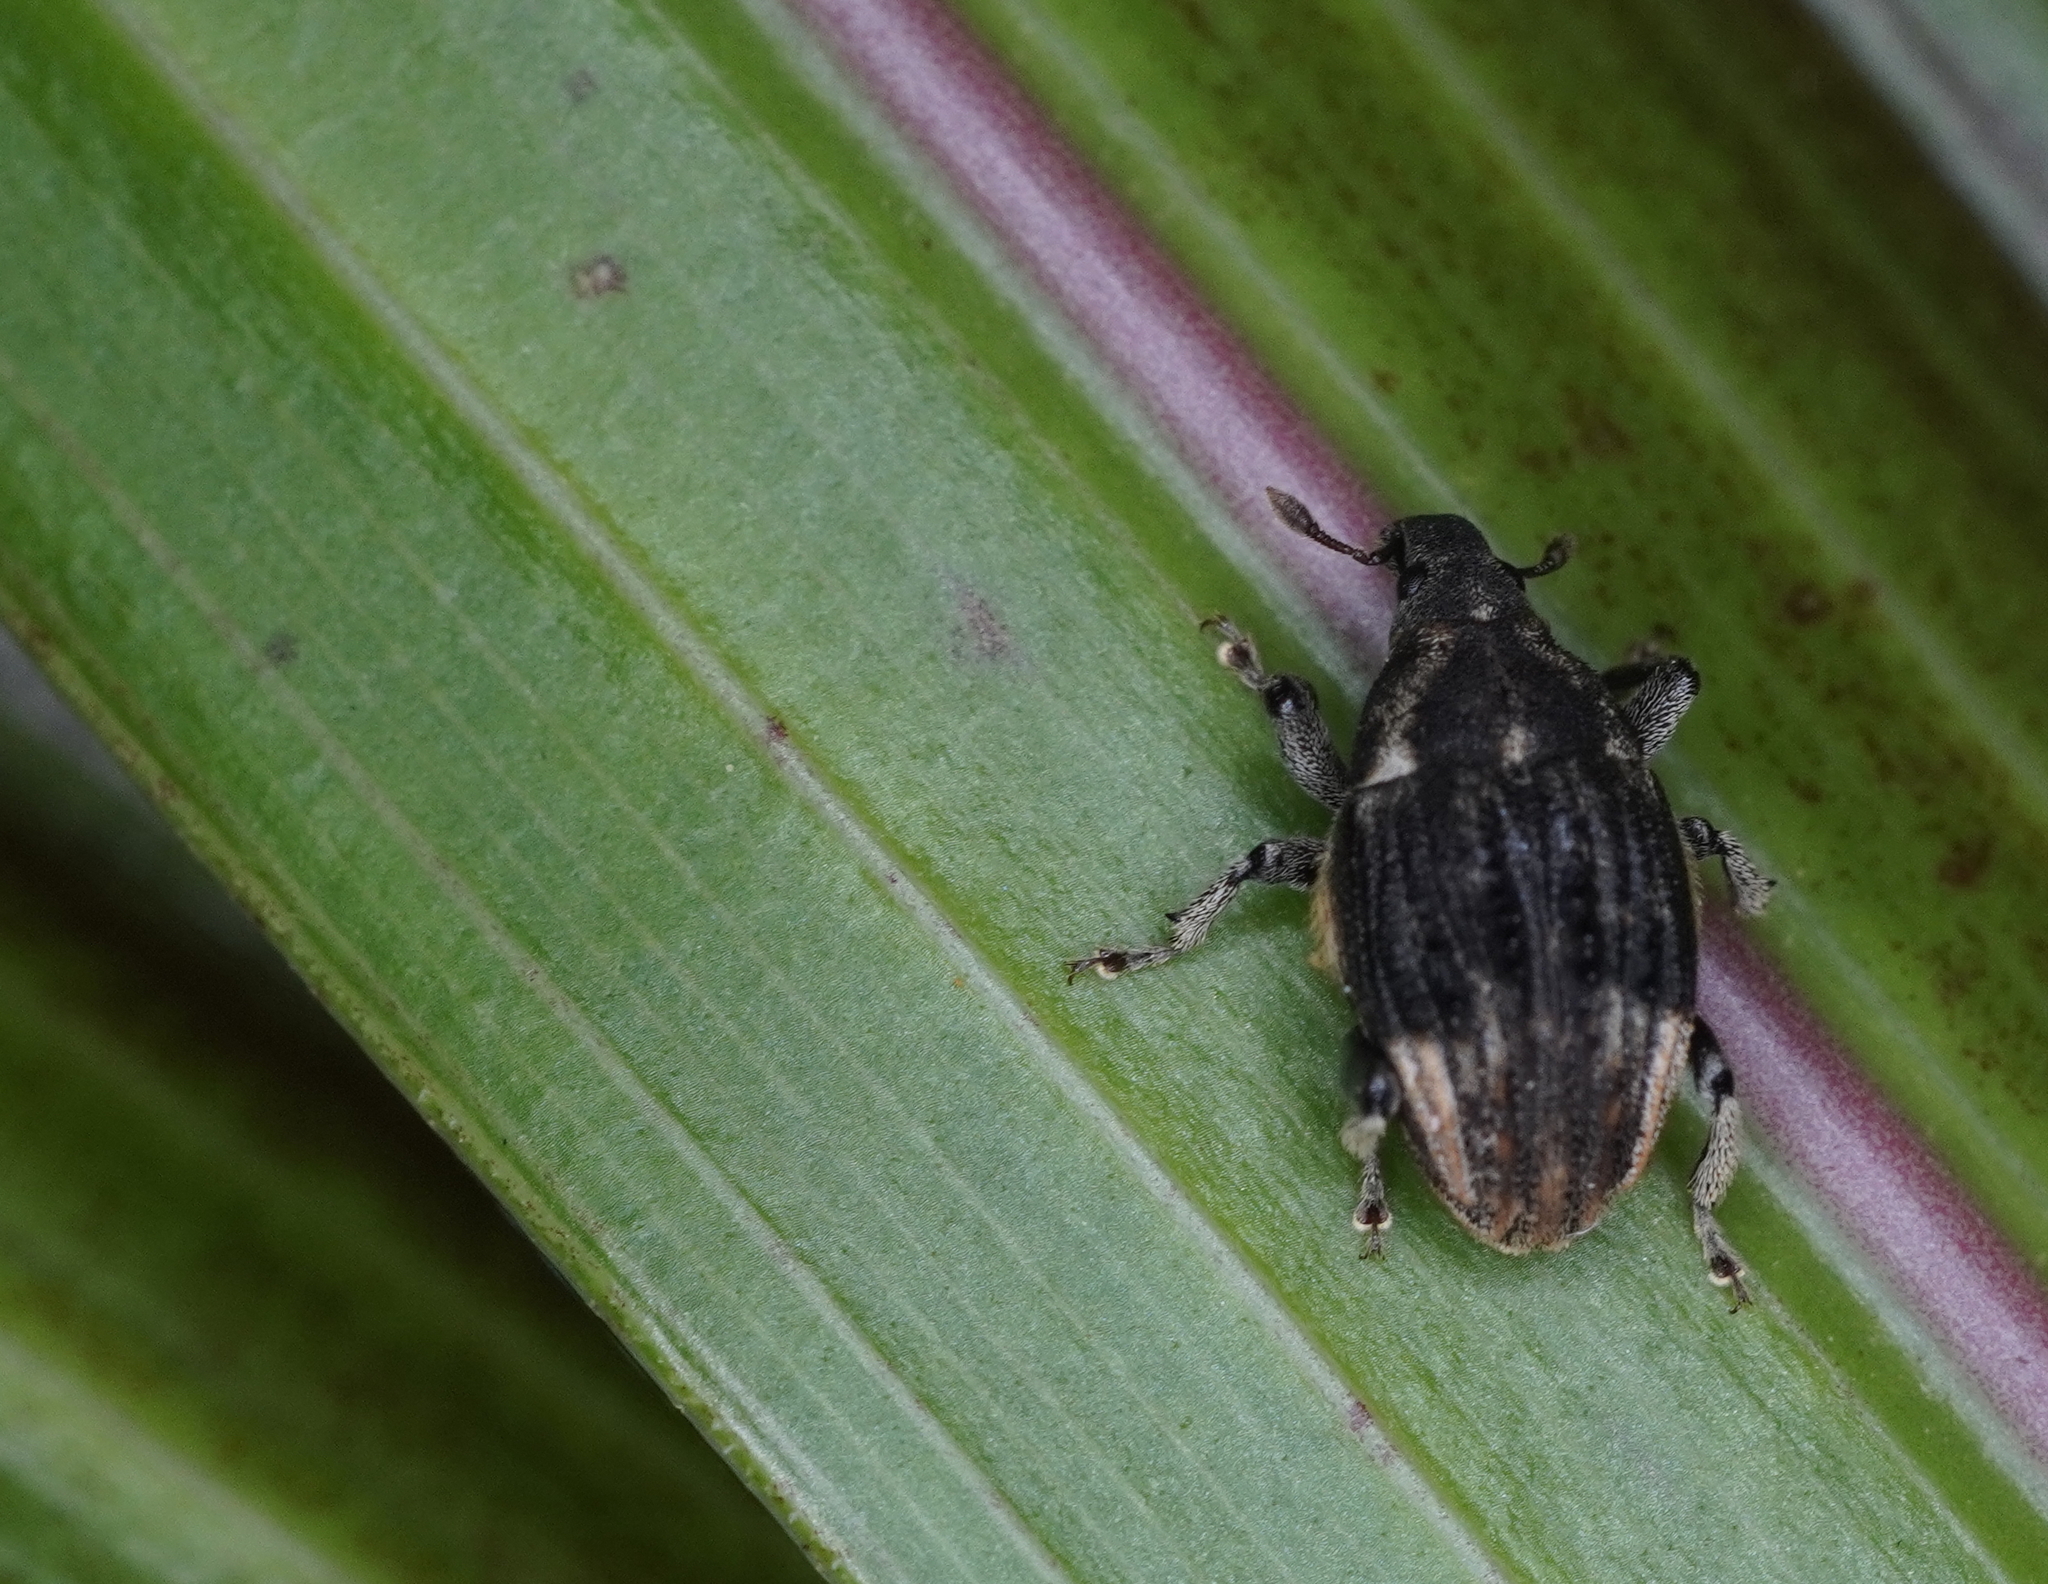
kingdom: Animalia
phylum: Arthropoda
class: Insecta
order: Coleoptera
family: Curculionidae
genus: Psepholax
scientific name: Psepholax sulcatus
